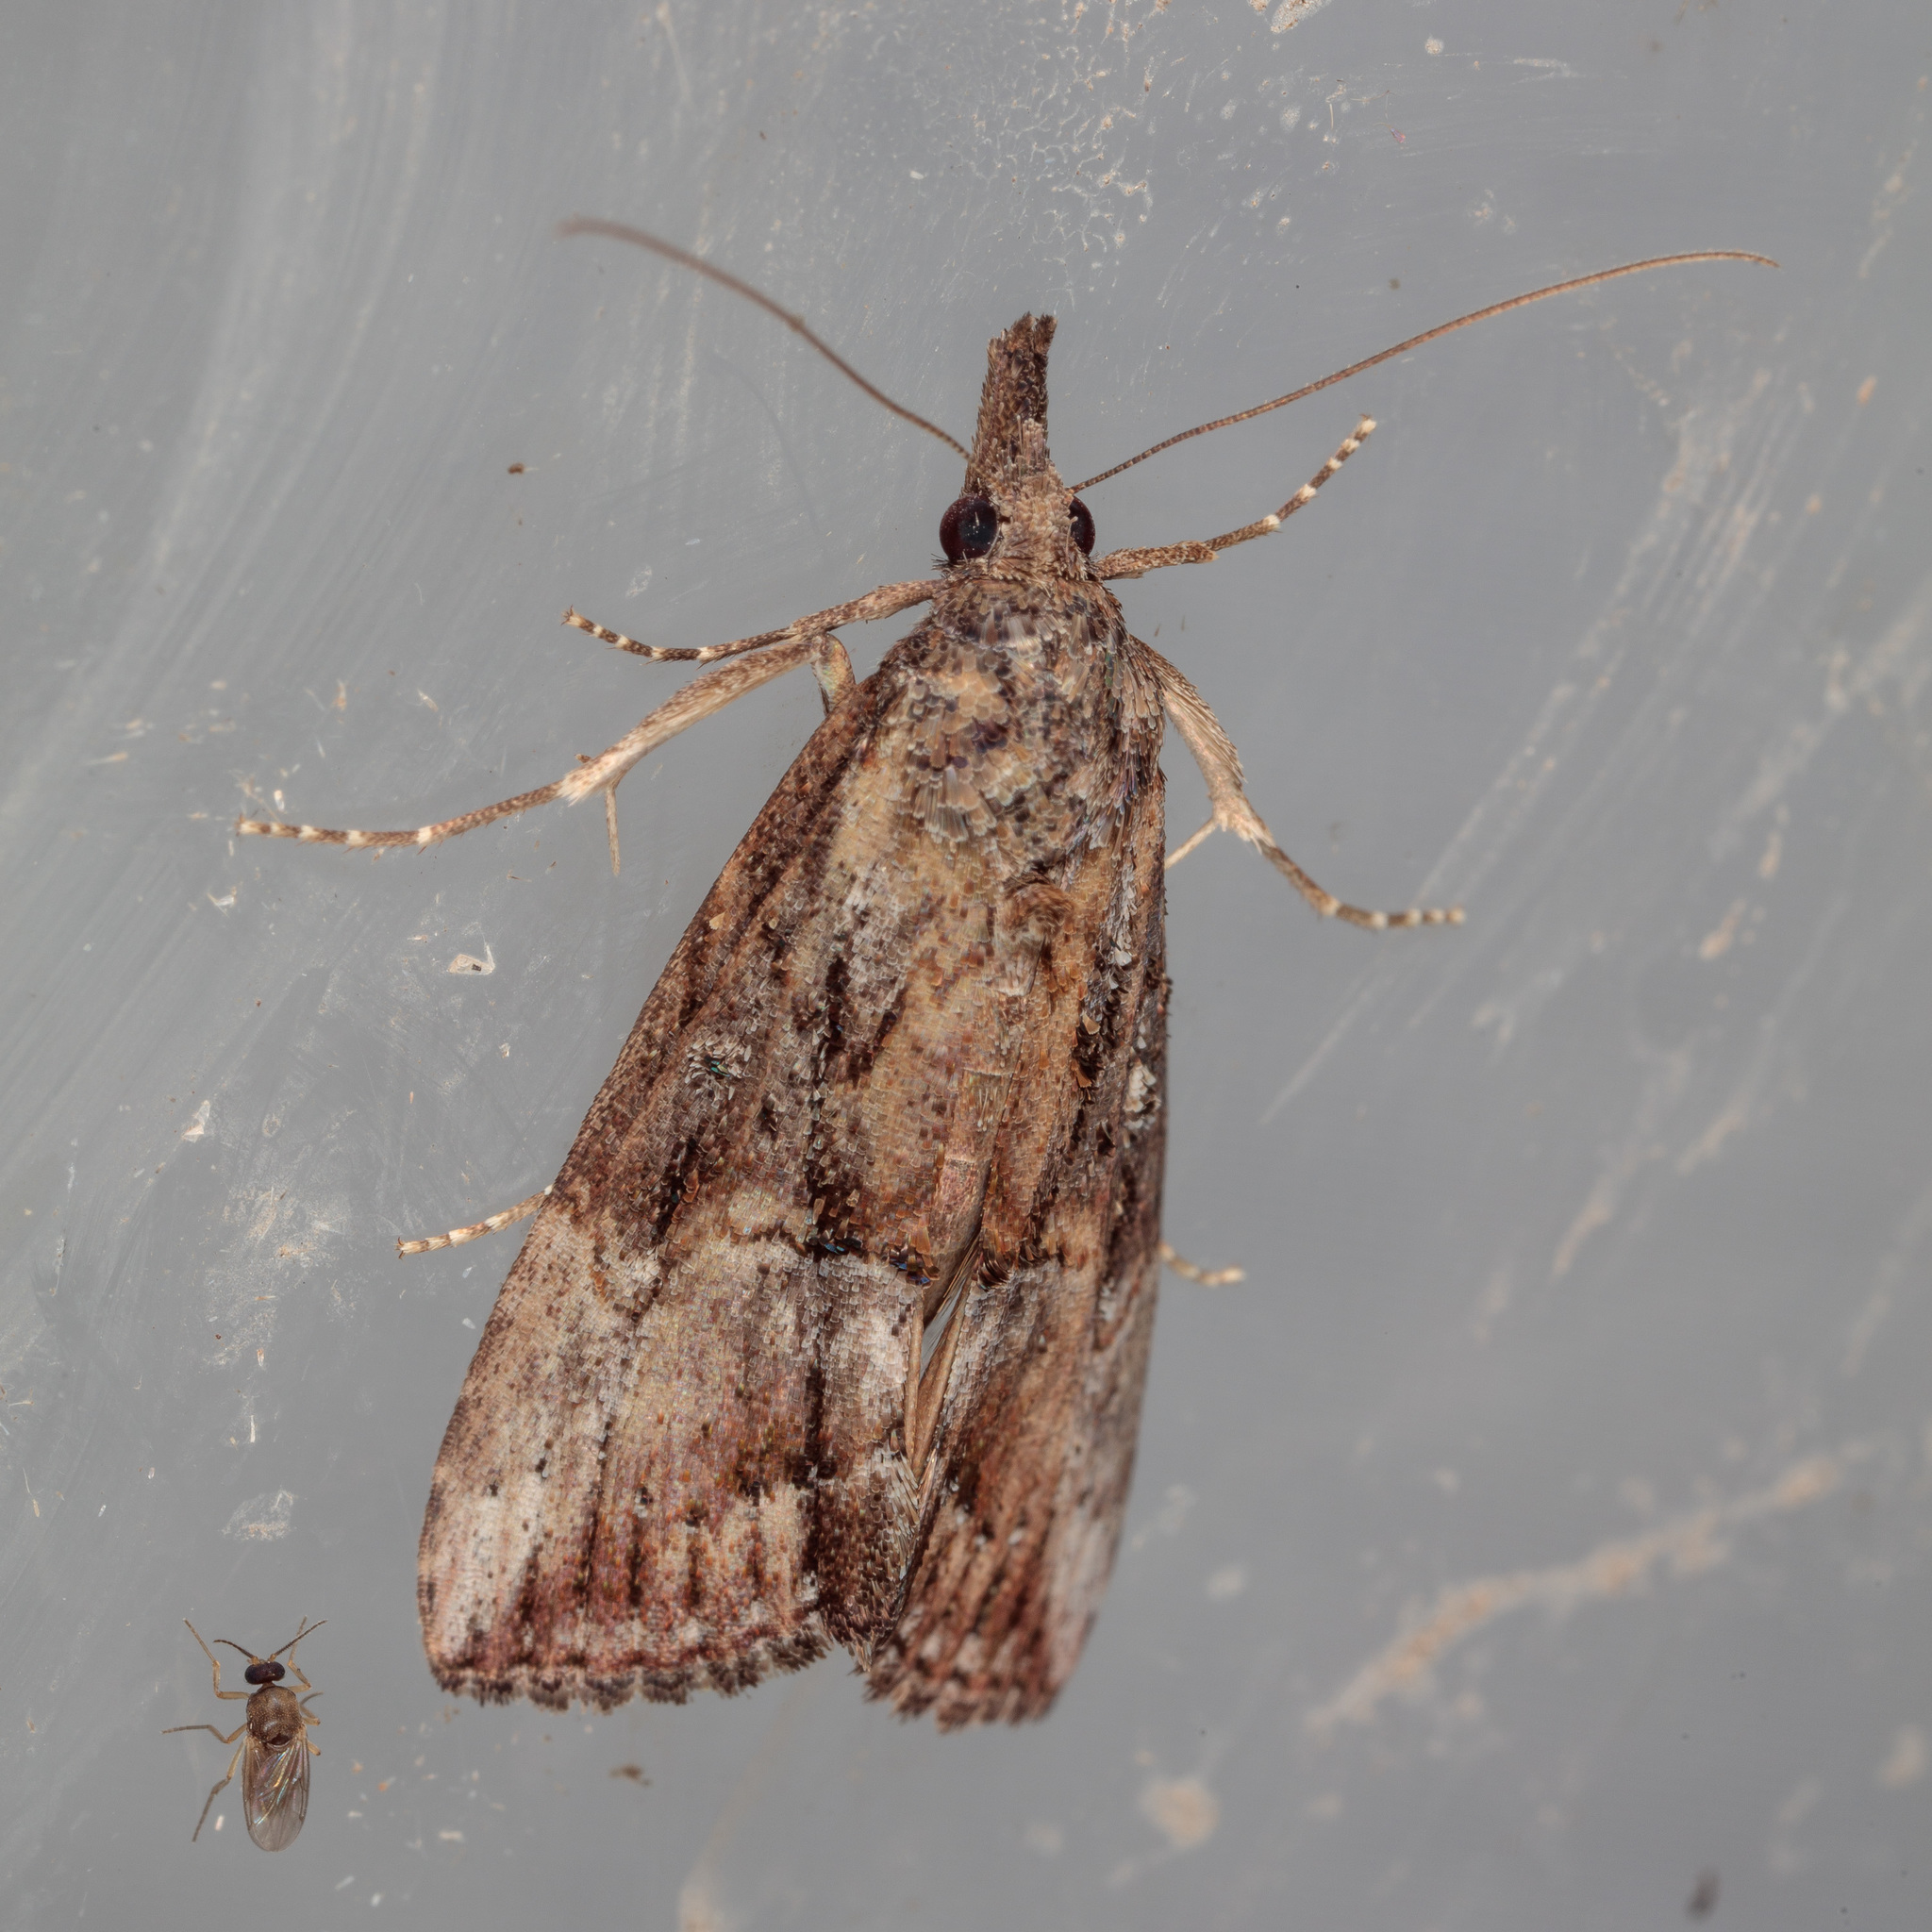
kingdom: Animalia
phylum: Arthropoda
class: Insecta
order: Lepidoptera
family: Erebidae
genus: Hypena
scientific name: Hypena scabra
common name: Green cloverworm
